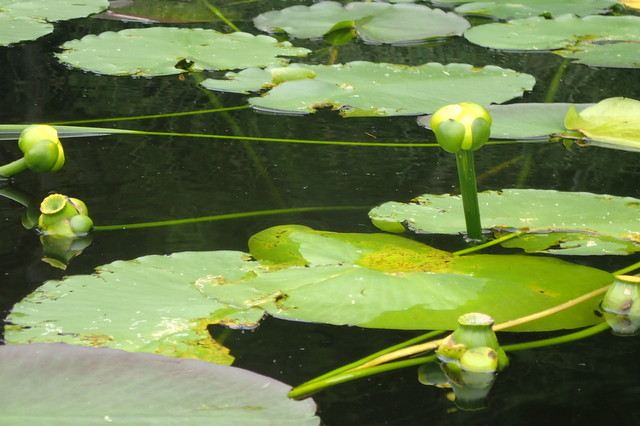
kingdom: Plantae
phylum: Tracheophyta
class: Magnoliopsida
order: Nymphaeales
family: Nymphaeaceae
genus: Nuphar
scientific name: Nuphar advena
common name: Spatter-dock
